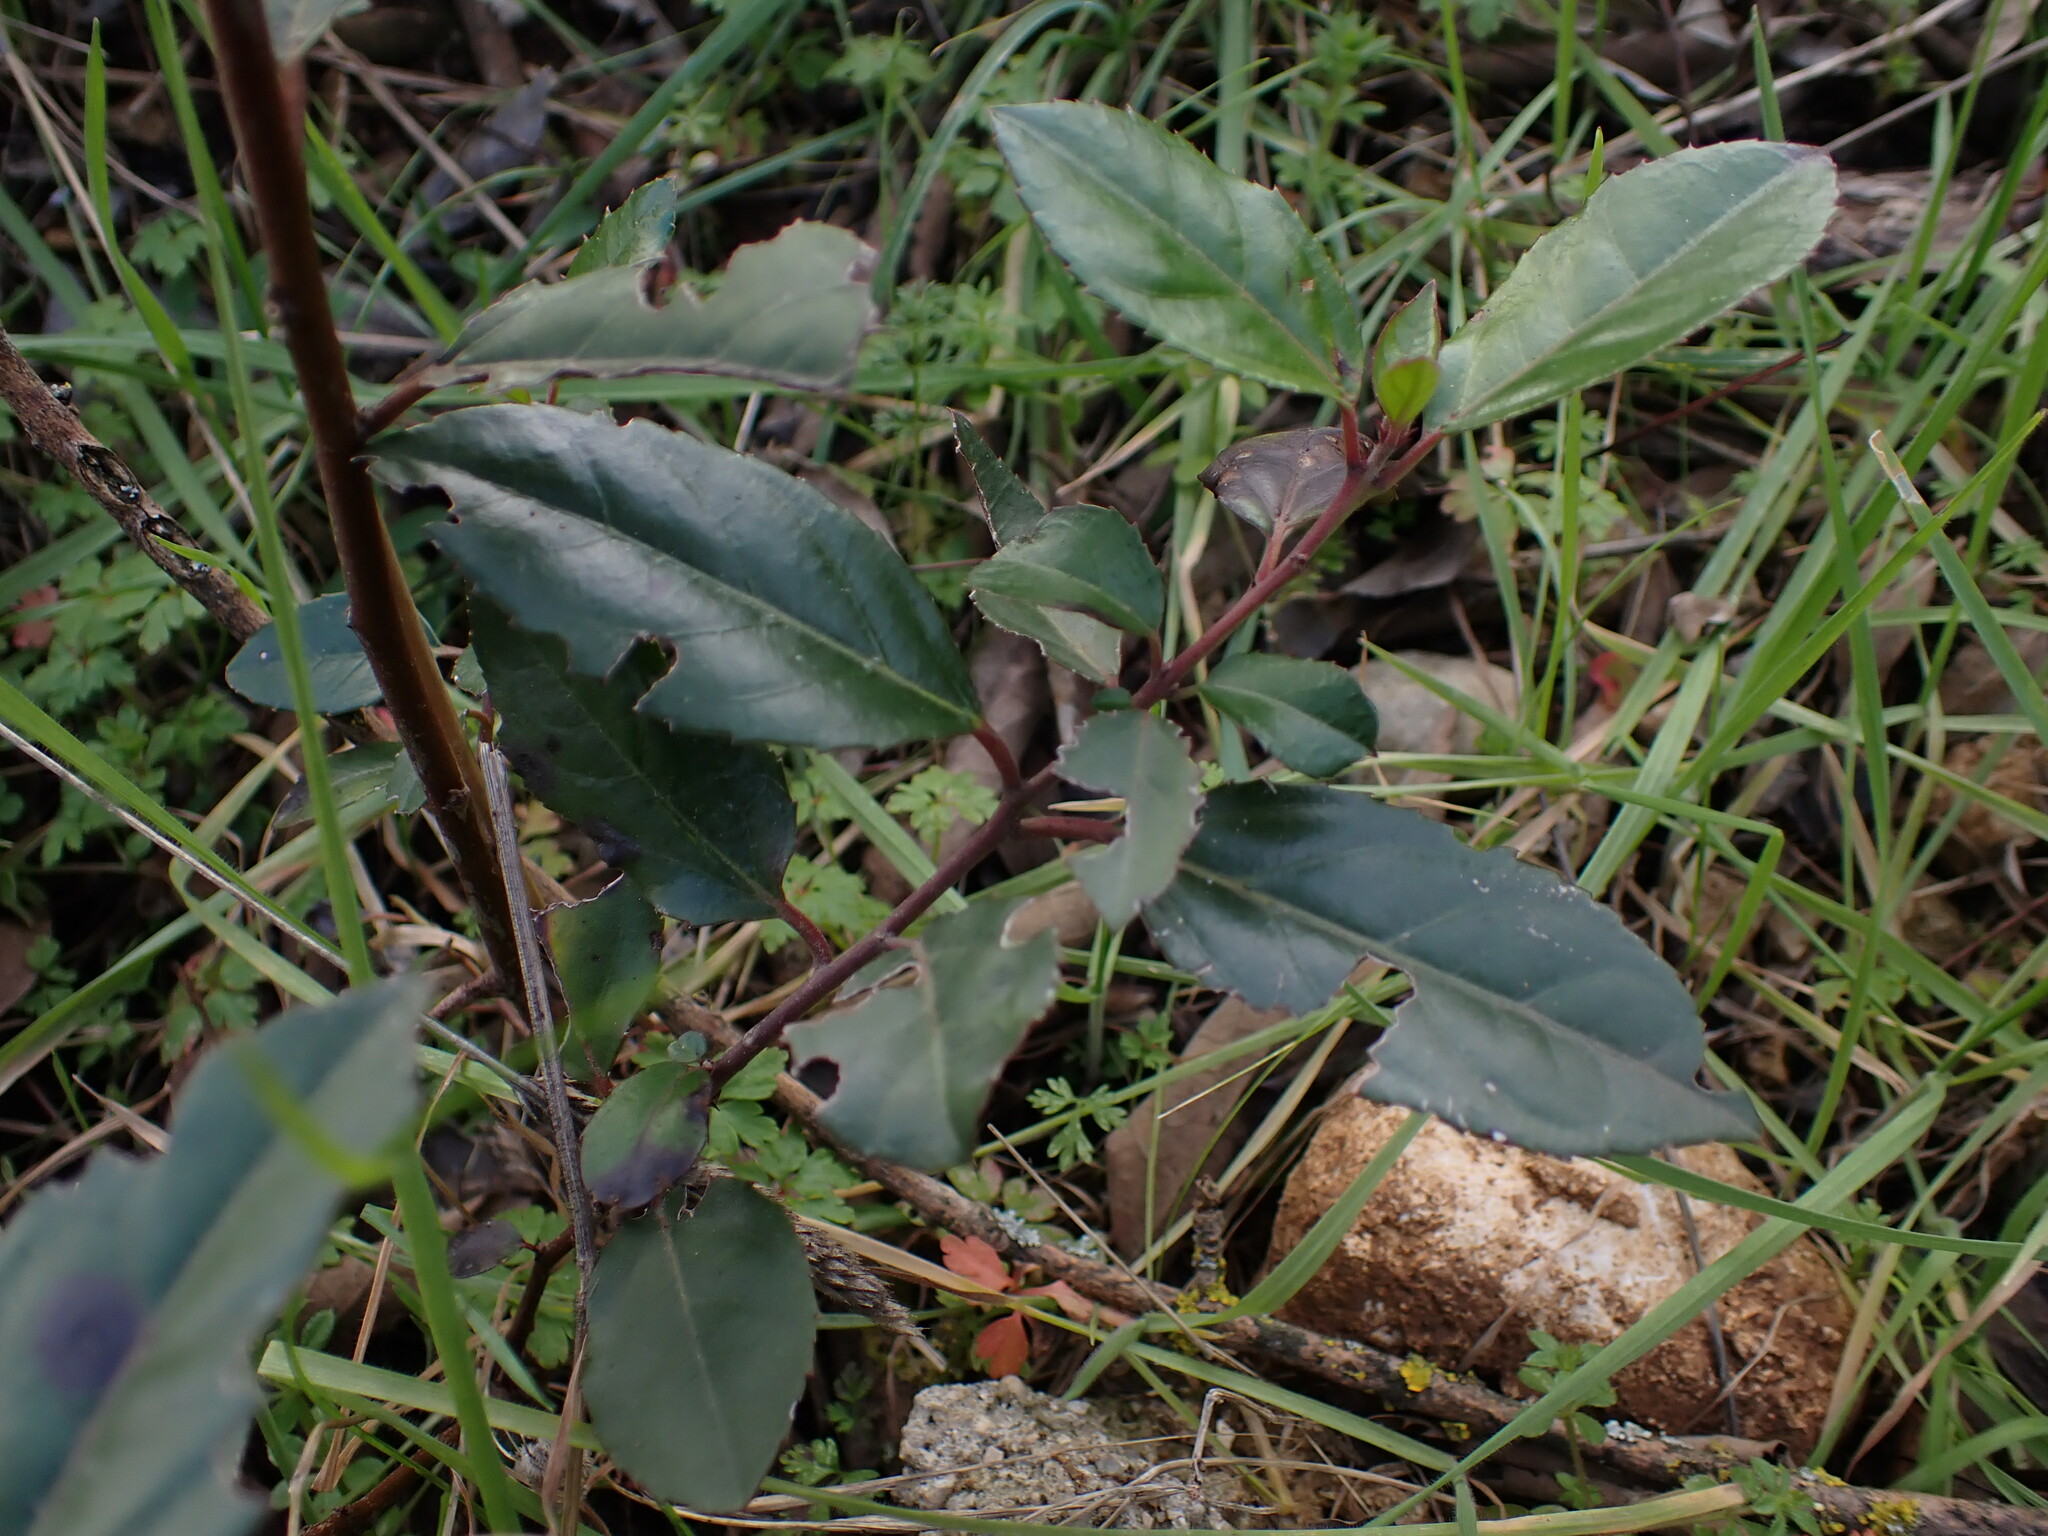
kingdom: Plantae
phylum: Tracheophyta
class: Magnoliopsida
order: Rosales
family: Rhamnaceae
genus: Rhamnus
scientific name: Rhamnus alaternus
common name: Mediterranean buckthorn
